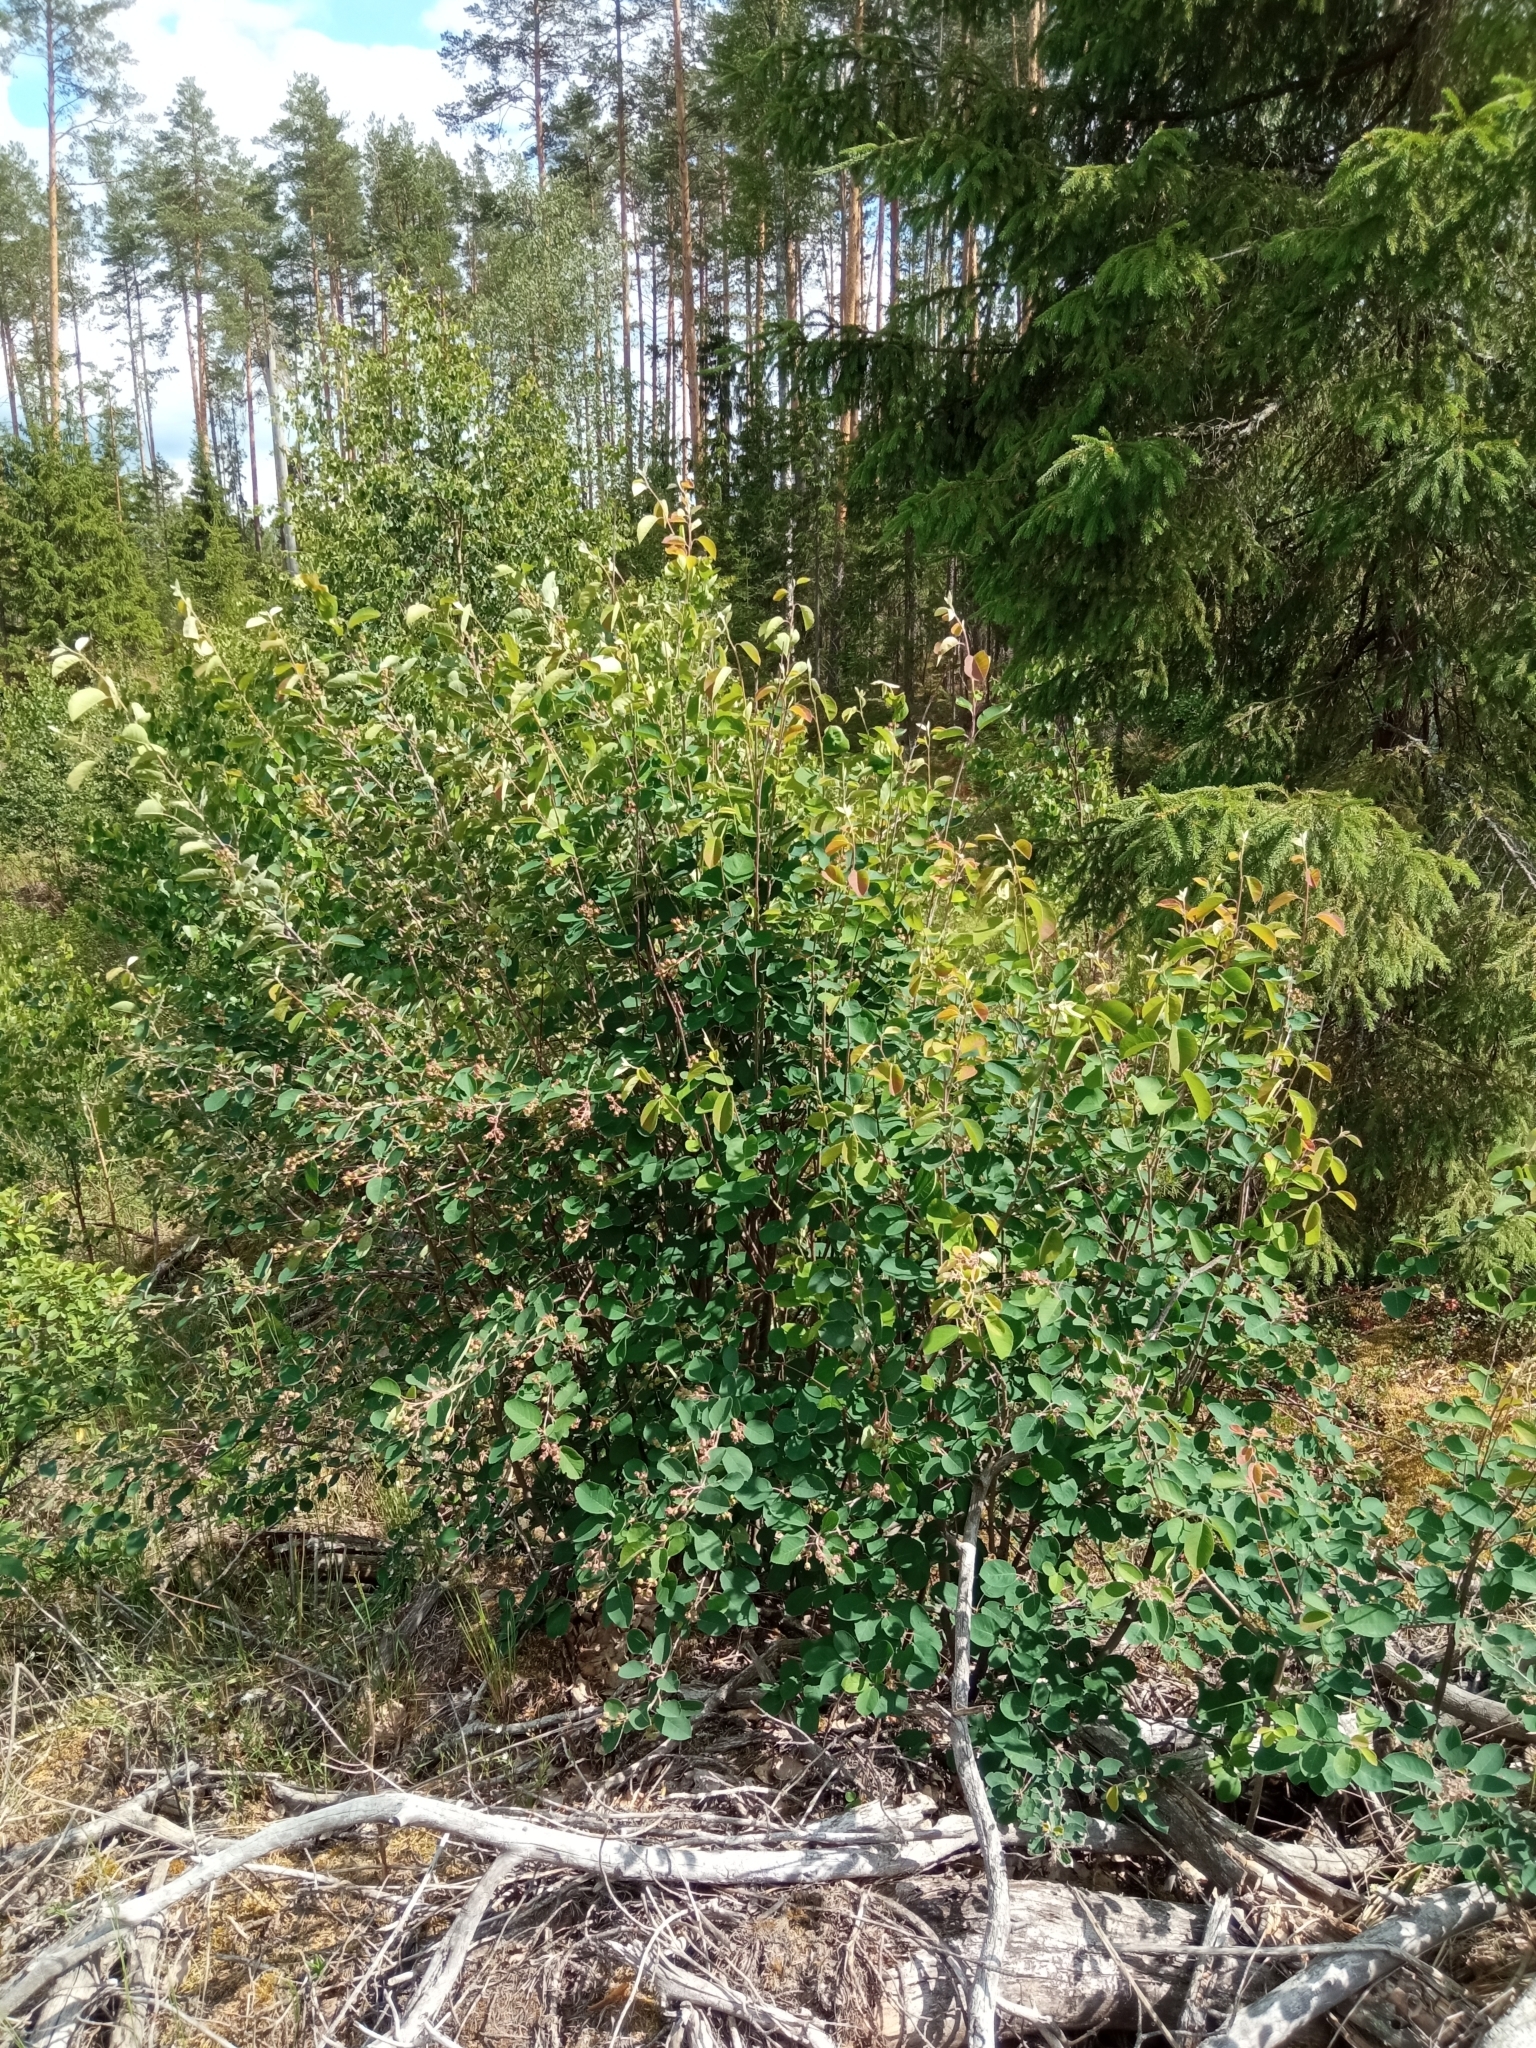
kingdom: Plantae
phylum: Tracheophyta
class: Magnoliopsida
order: Rosales
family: Rosaceae
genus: Amelanchier
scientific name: Amelanchier
